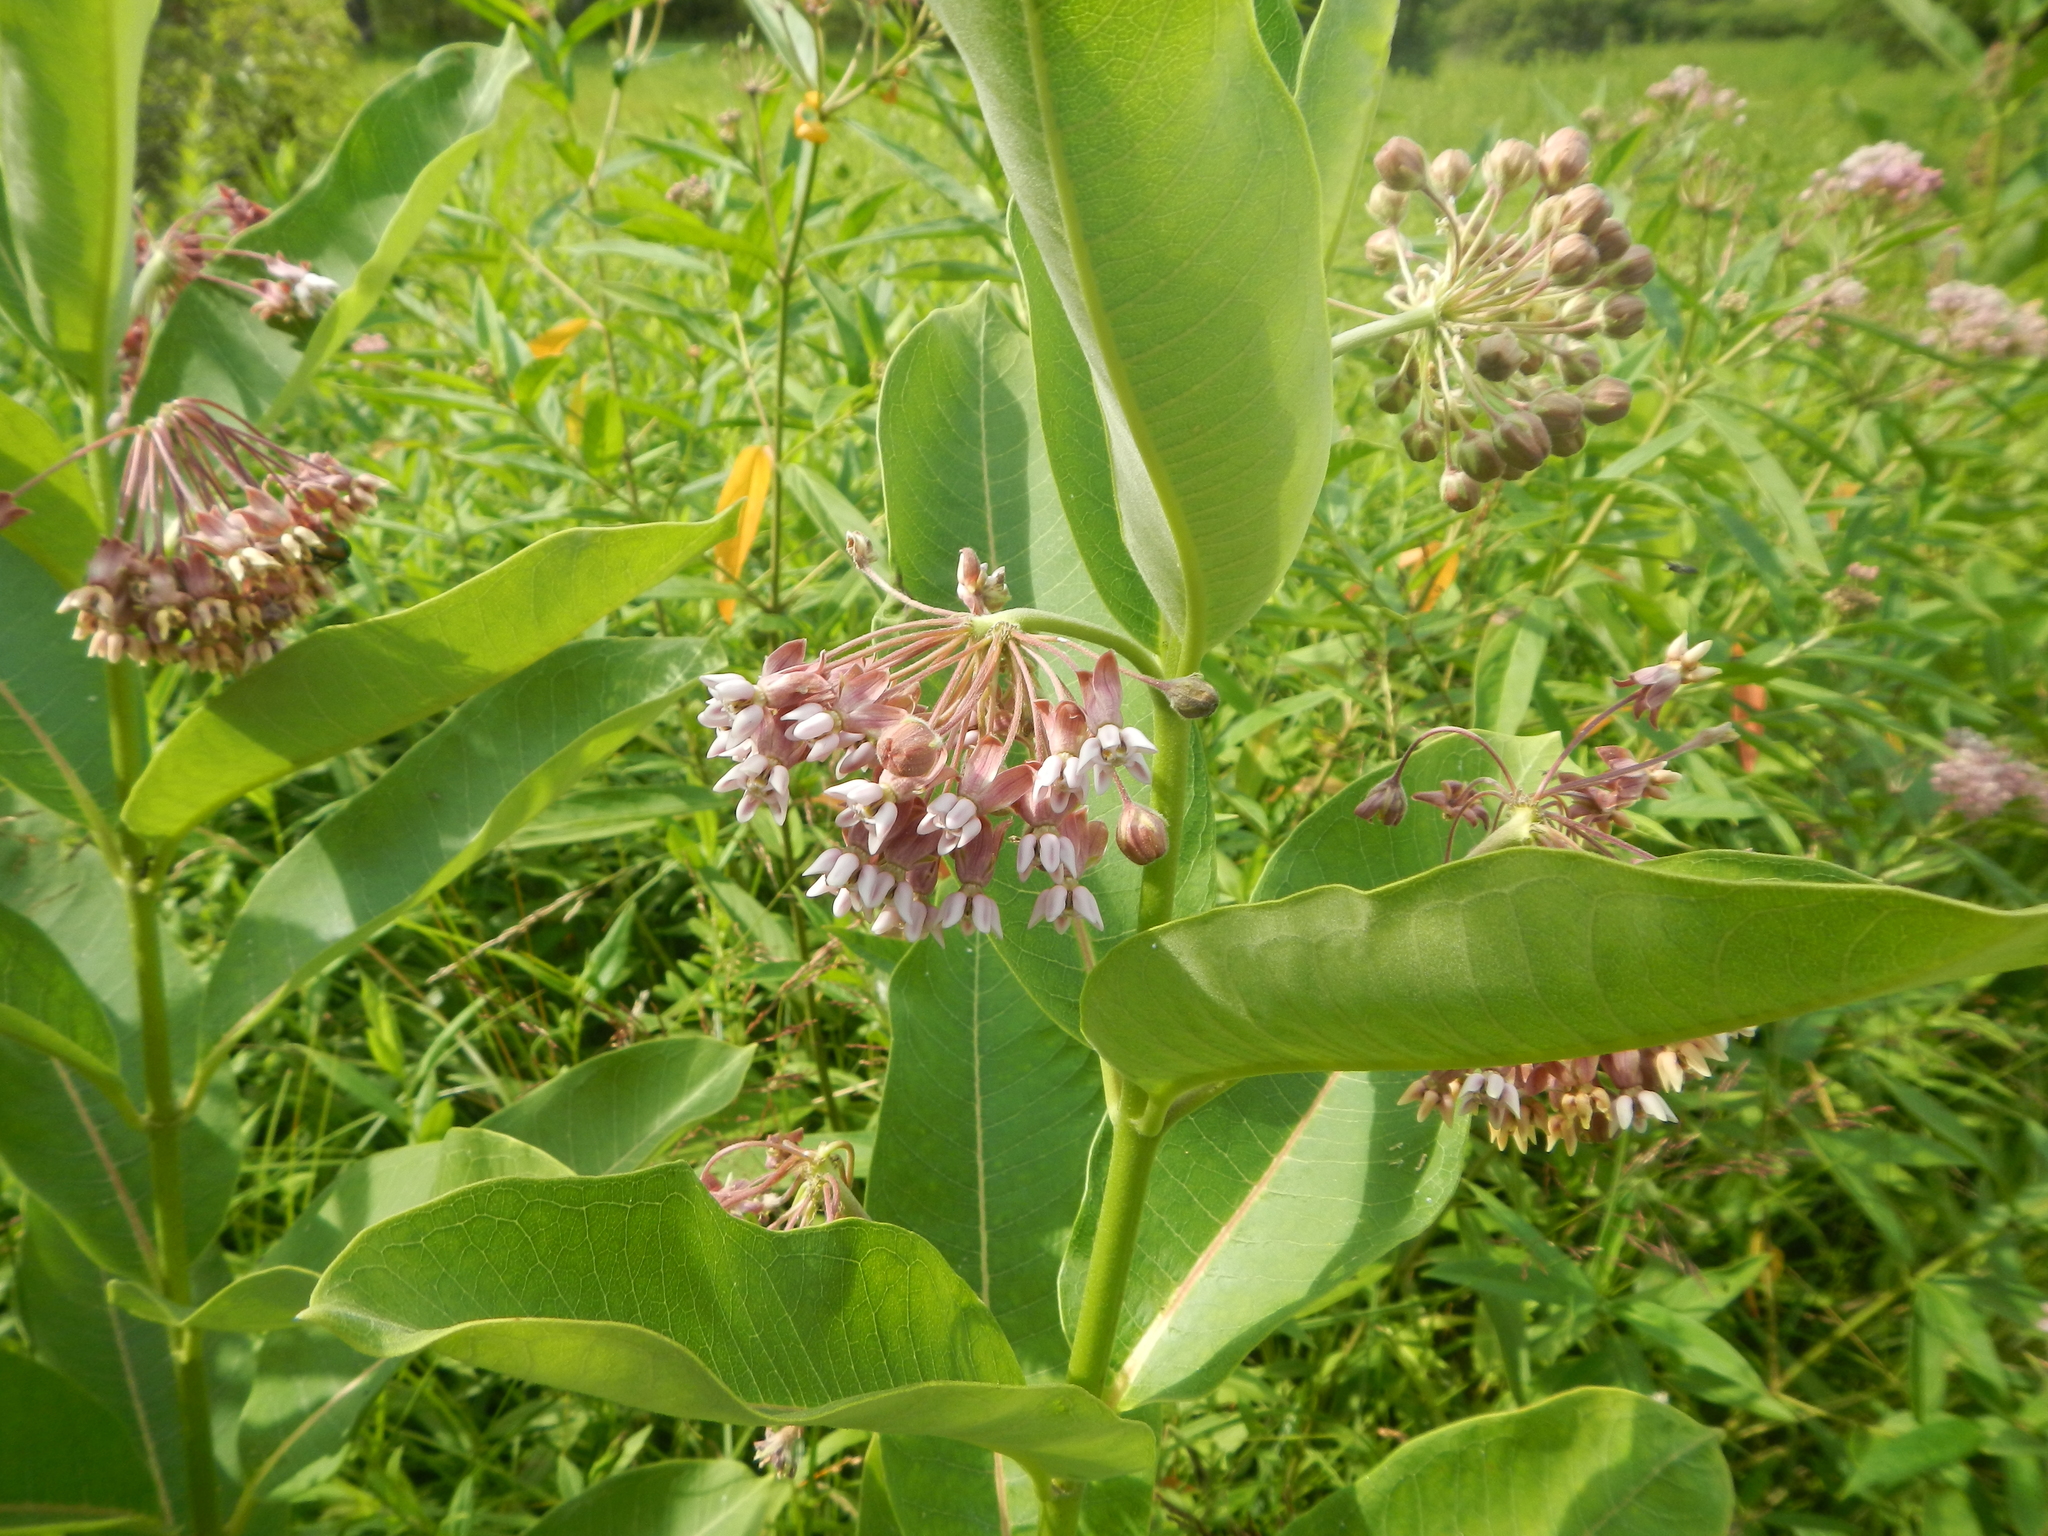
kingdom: Plantae
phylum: Tracheophyta
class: Magnoliopsida
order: Gentianales
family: Apocynaceae
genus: Asclepias
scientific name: Asclepias syriaca
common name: Common milkweed
